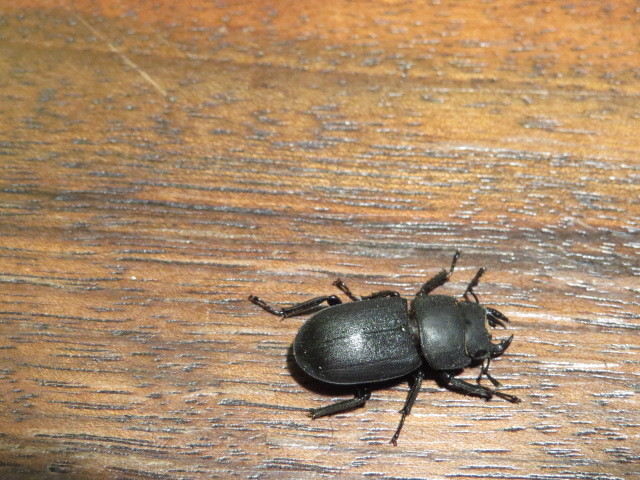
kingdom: Animalia
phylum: Arthropoda
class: Insecta
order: Coleoptera
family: Lucanidae
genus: Dorcus
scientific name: Dorcus parallelipipedus
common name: Lesser stag beetle
